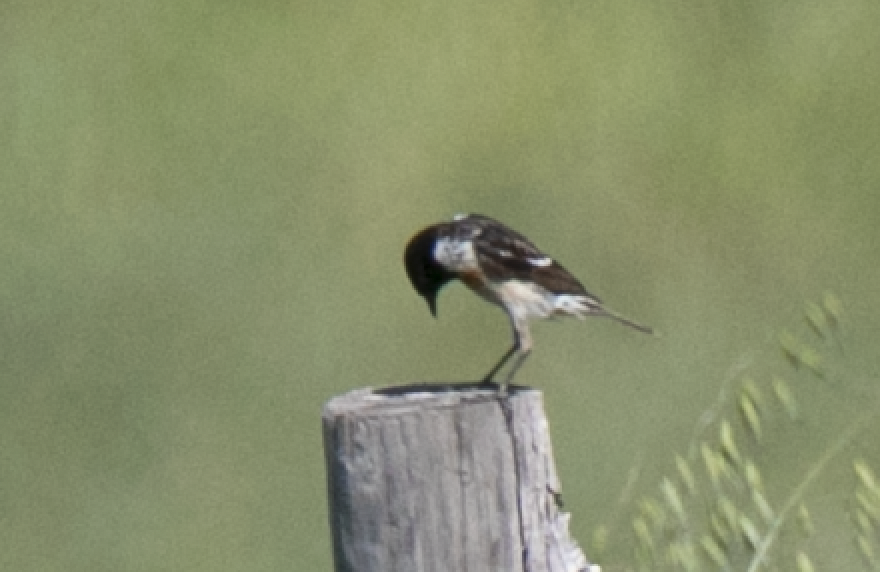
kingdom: Animalia
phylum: Chordata
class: Aves
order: Passeriformes
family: Muscicapidae
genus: Saxicola
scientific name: Saxicola rubicola
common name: European stonechat
